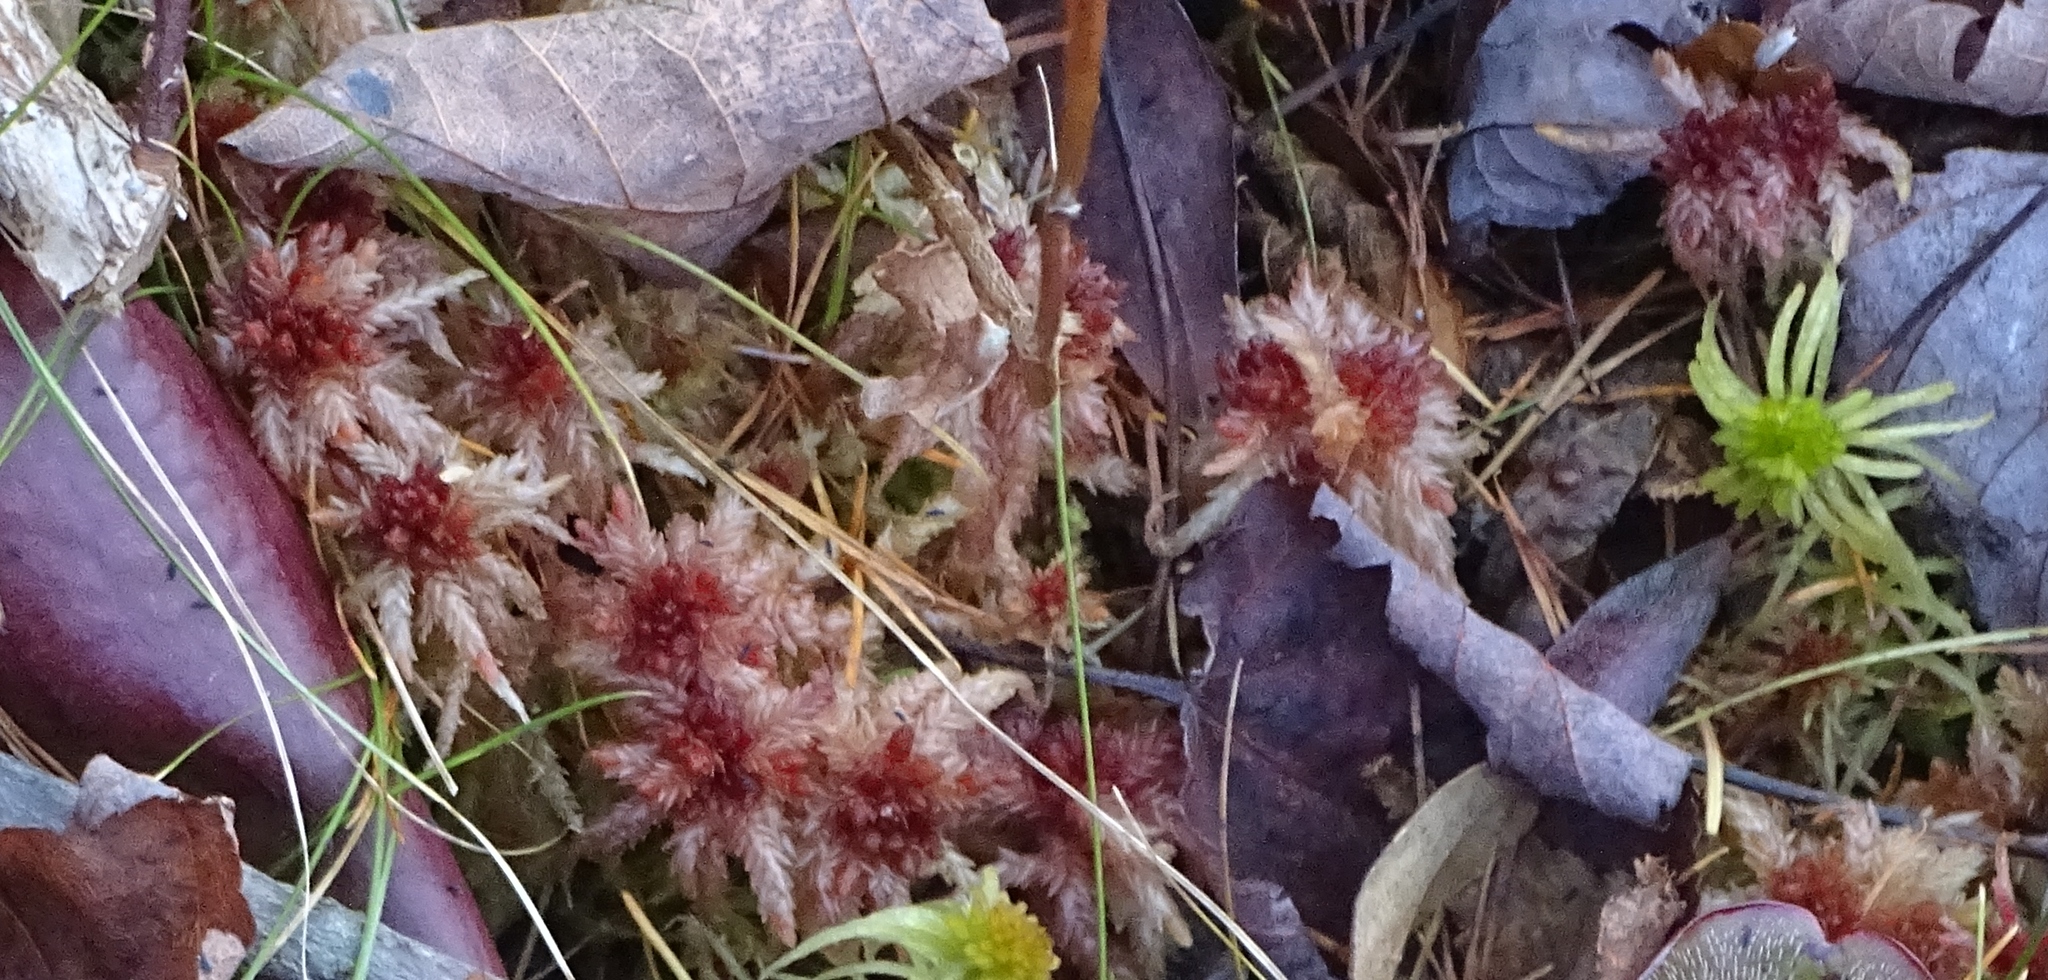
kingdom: Plantae
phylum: Bryophyta
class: Sphagnopsida
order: Sphagnales
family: Sphagnaceae
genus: Sphagnum
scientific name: Sphagnum magellanicum
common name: Magellan's peat moss
